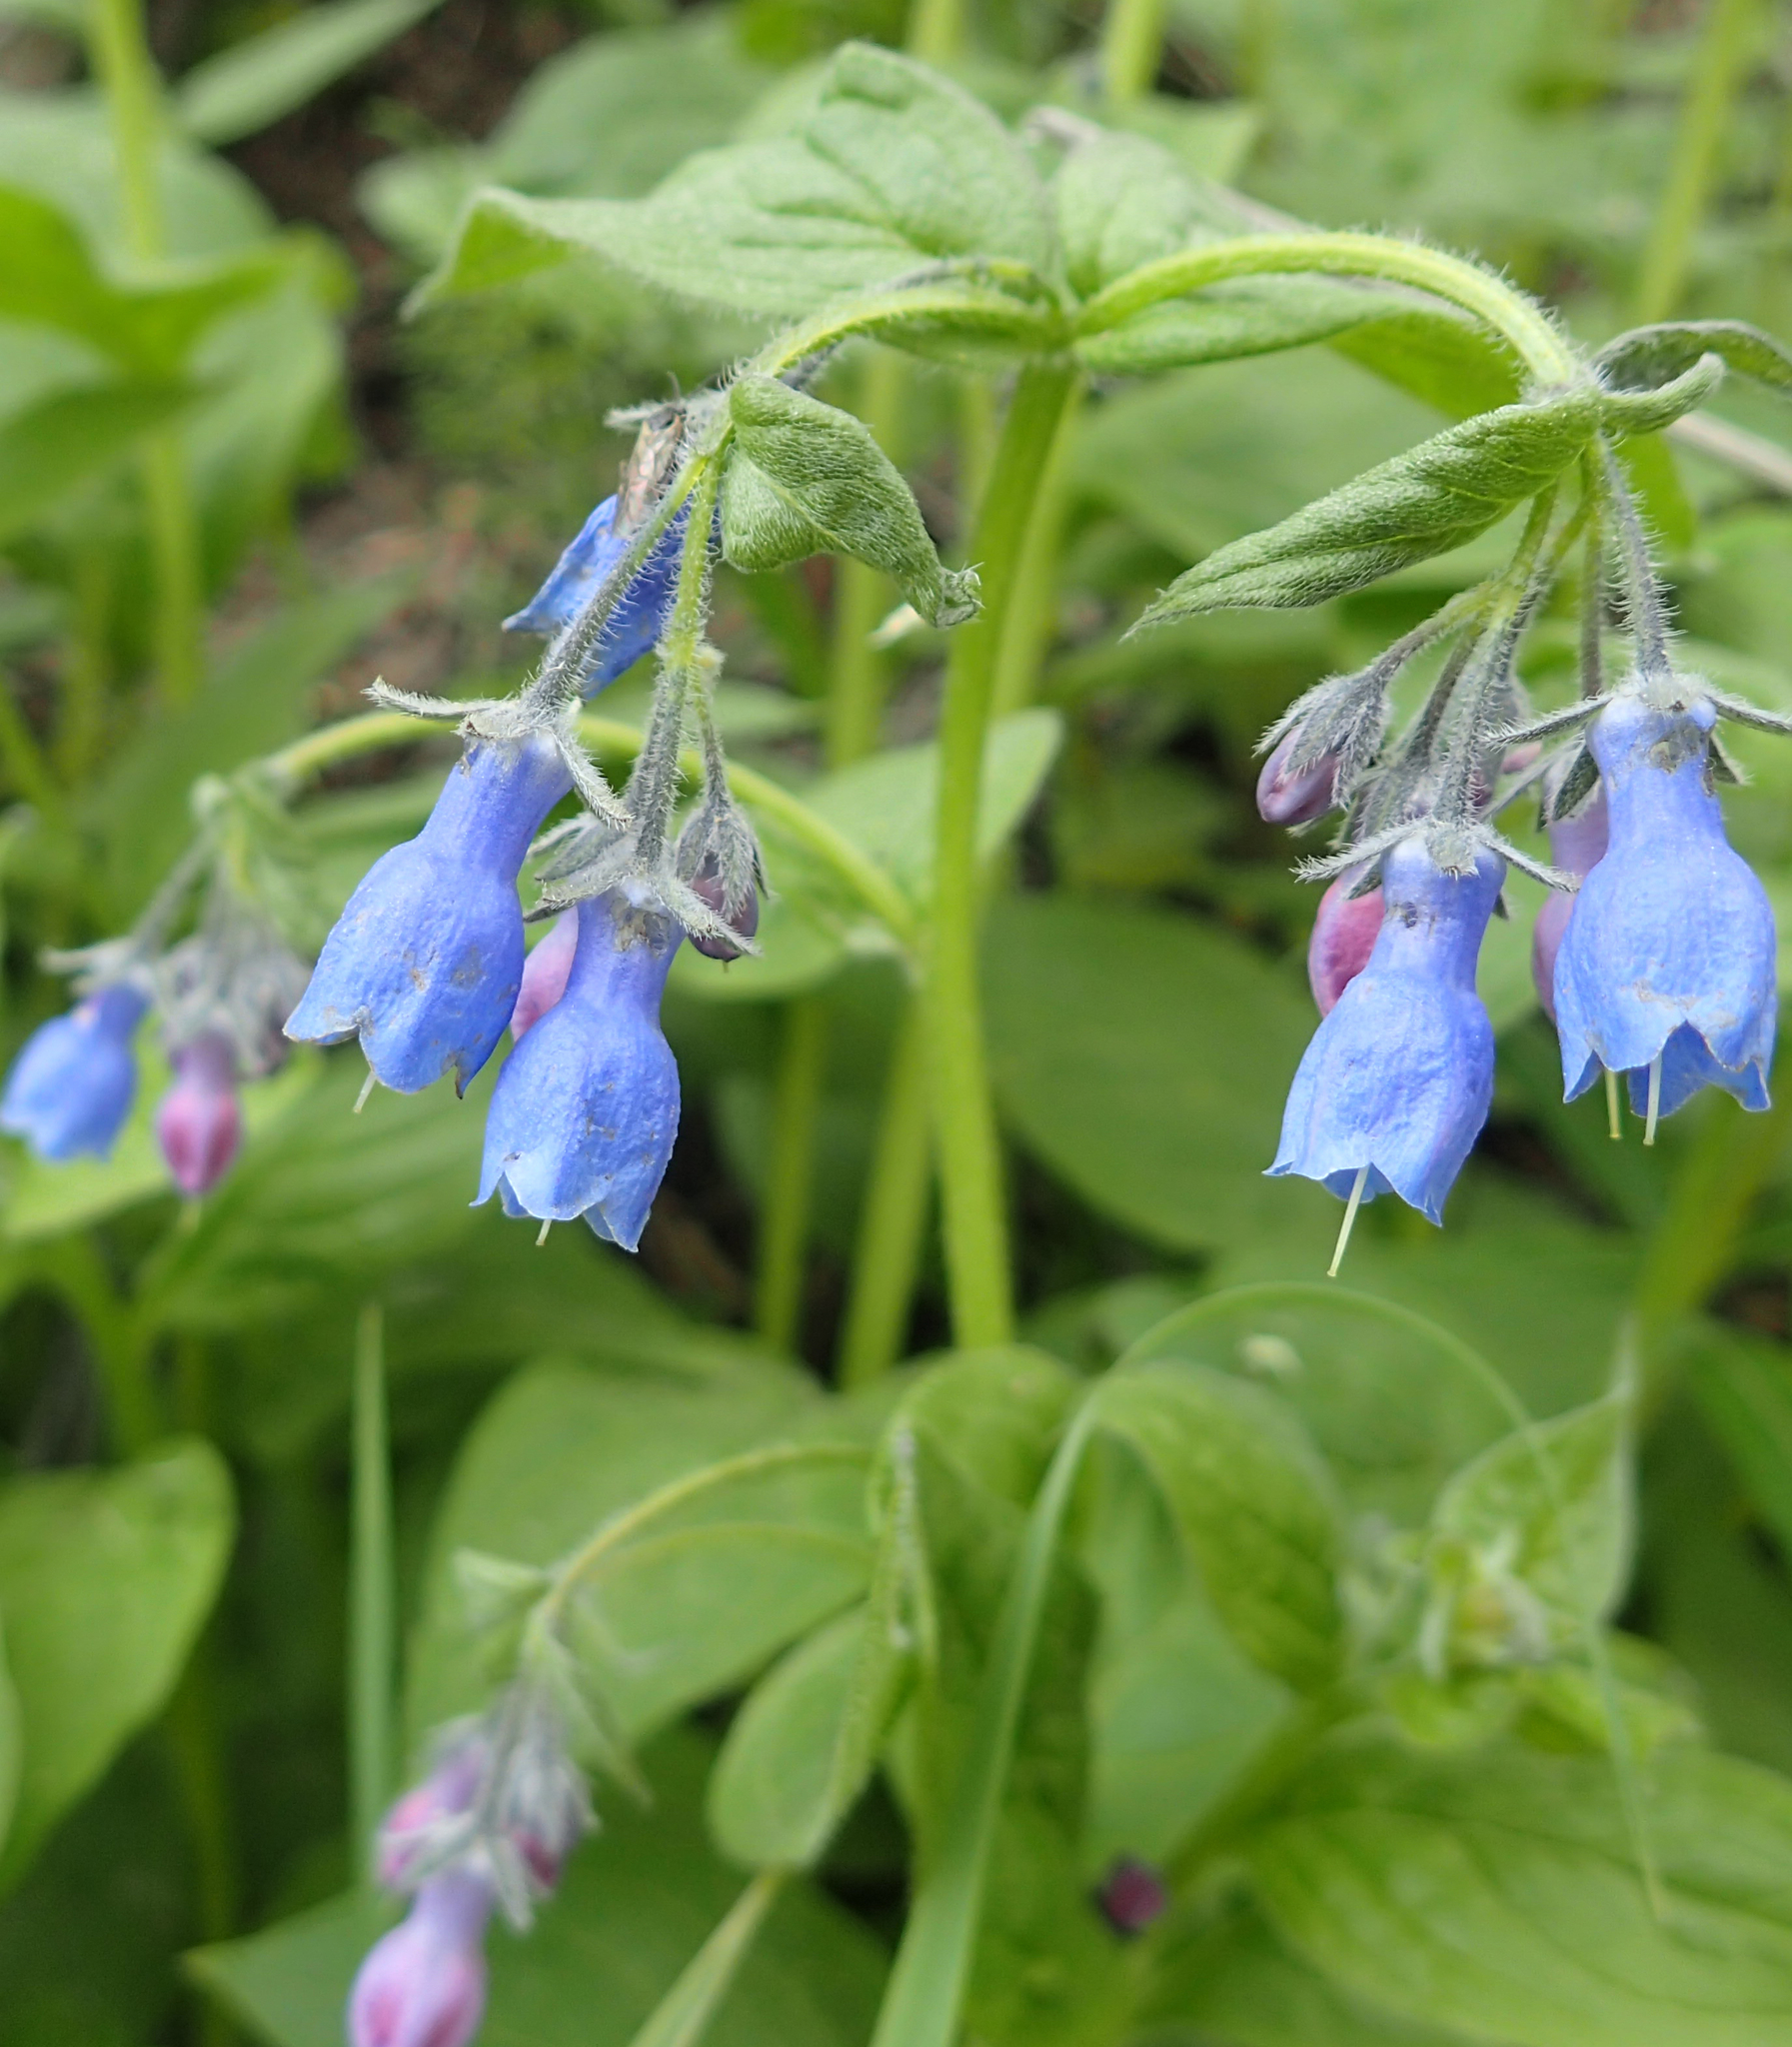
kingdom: Plantae
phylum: Tracheophyta
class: Magnoliopsida
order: Boraginales
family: Boraginaceae
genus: Mertensia
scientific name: Mertensia paniculata
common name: Panicled bluebells
